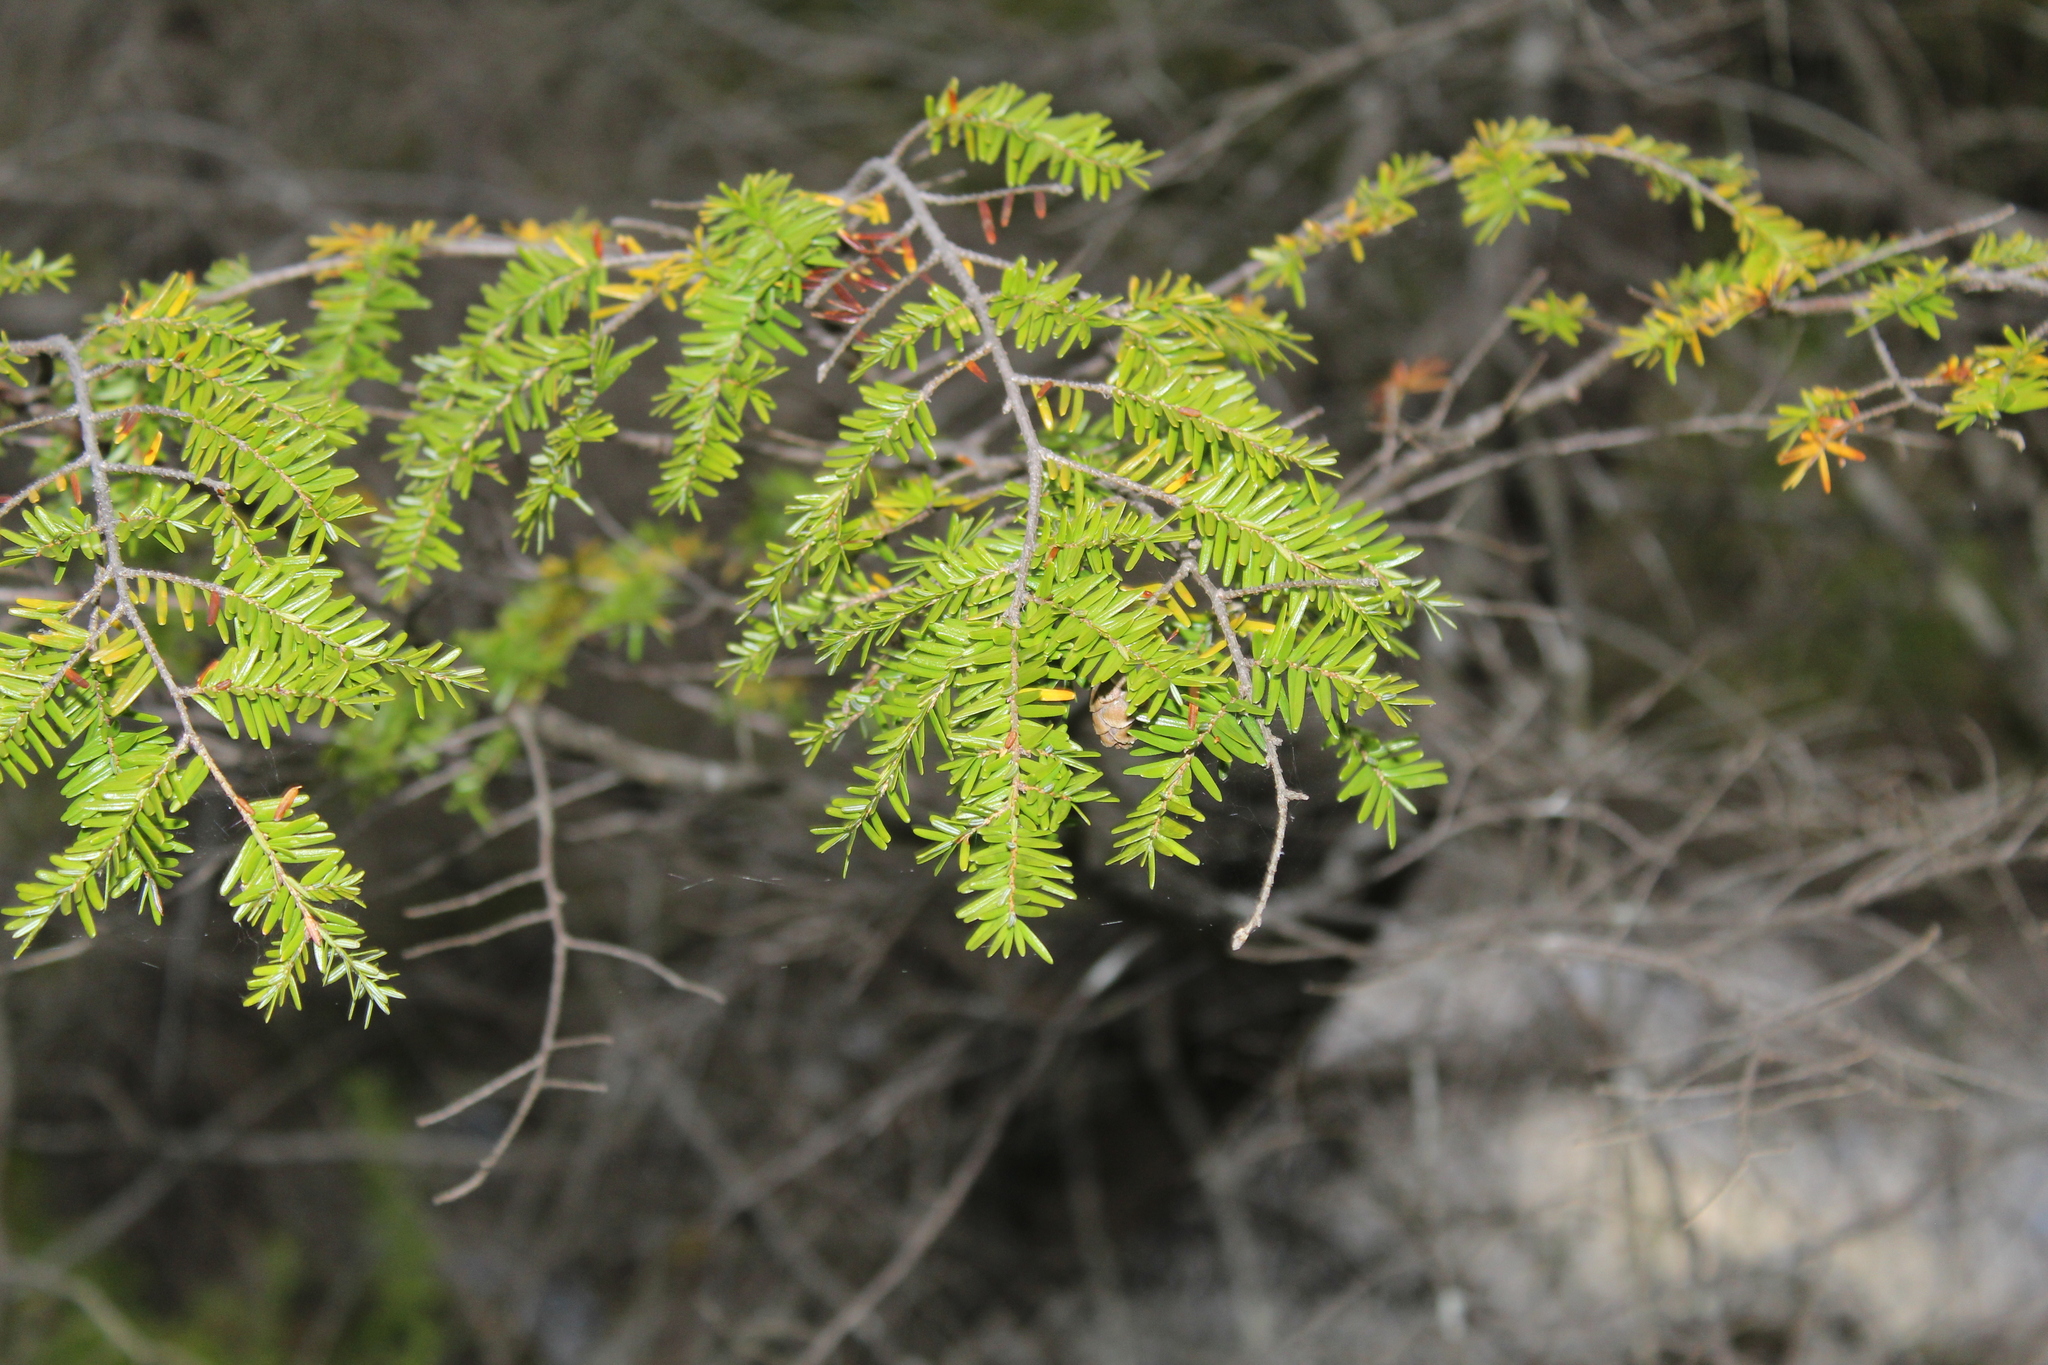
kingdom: Plantae
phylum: Tracheophyta
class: Pinopsida
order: Pinales
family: Pinaceae
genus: Tsuga
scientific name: Tsuga canadensis
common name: Eastern hemlock
